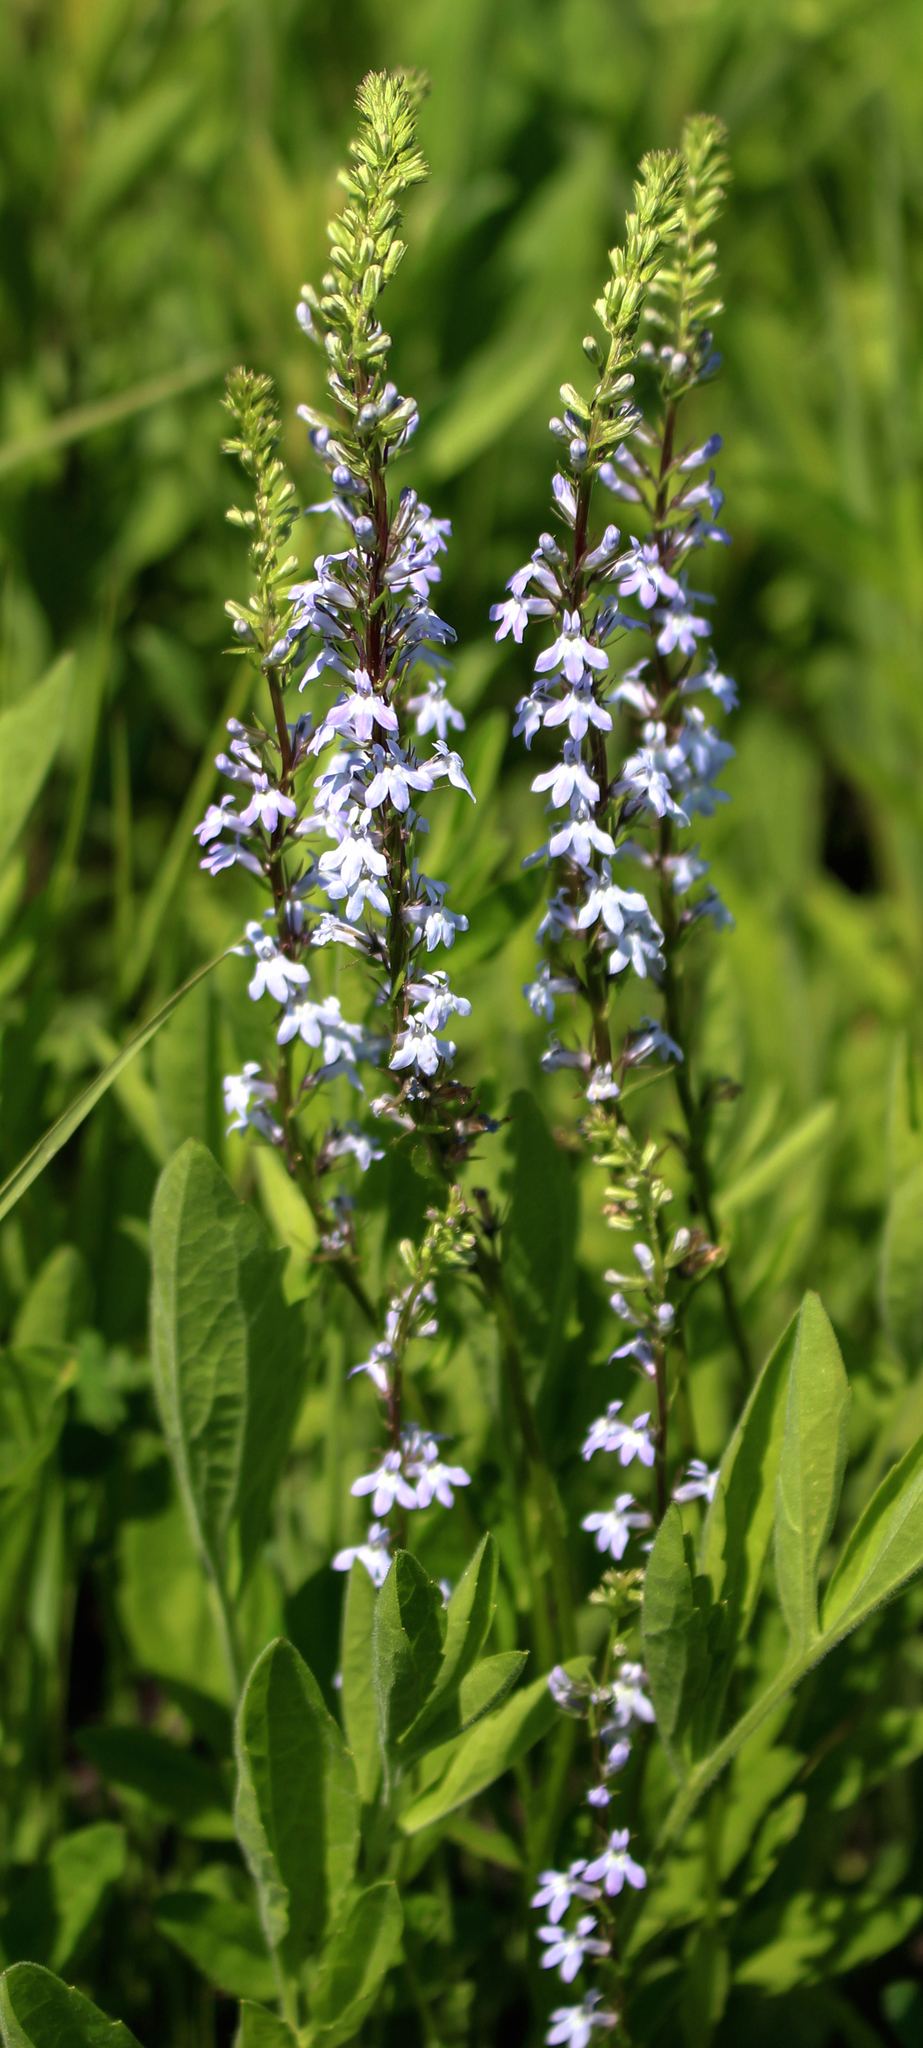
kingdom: Plantae
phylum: Tracheophyta
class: Magnoliopsida
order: Asterales
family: Campanulaceae
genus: Lobelia
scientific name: Lobelia spicata
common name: Pale-spike lobelia
